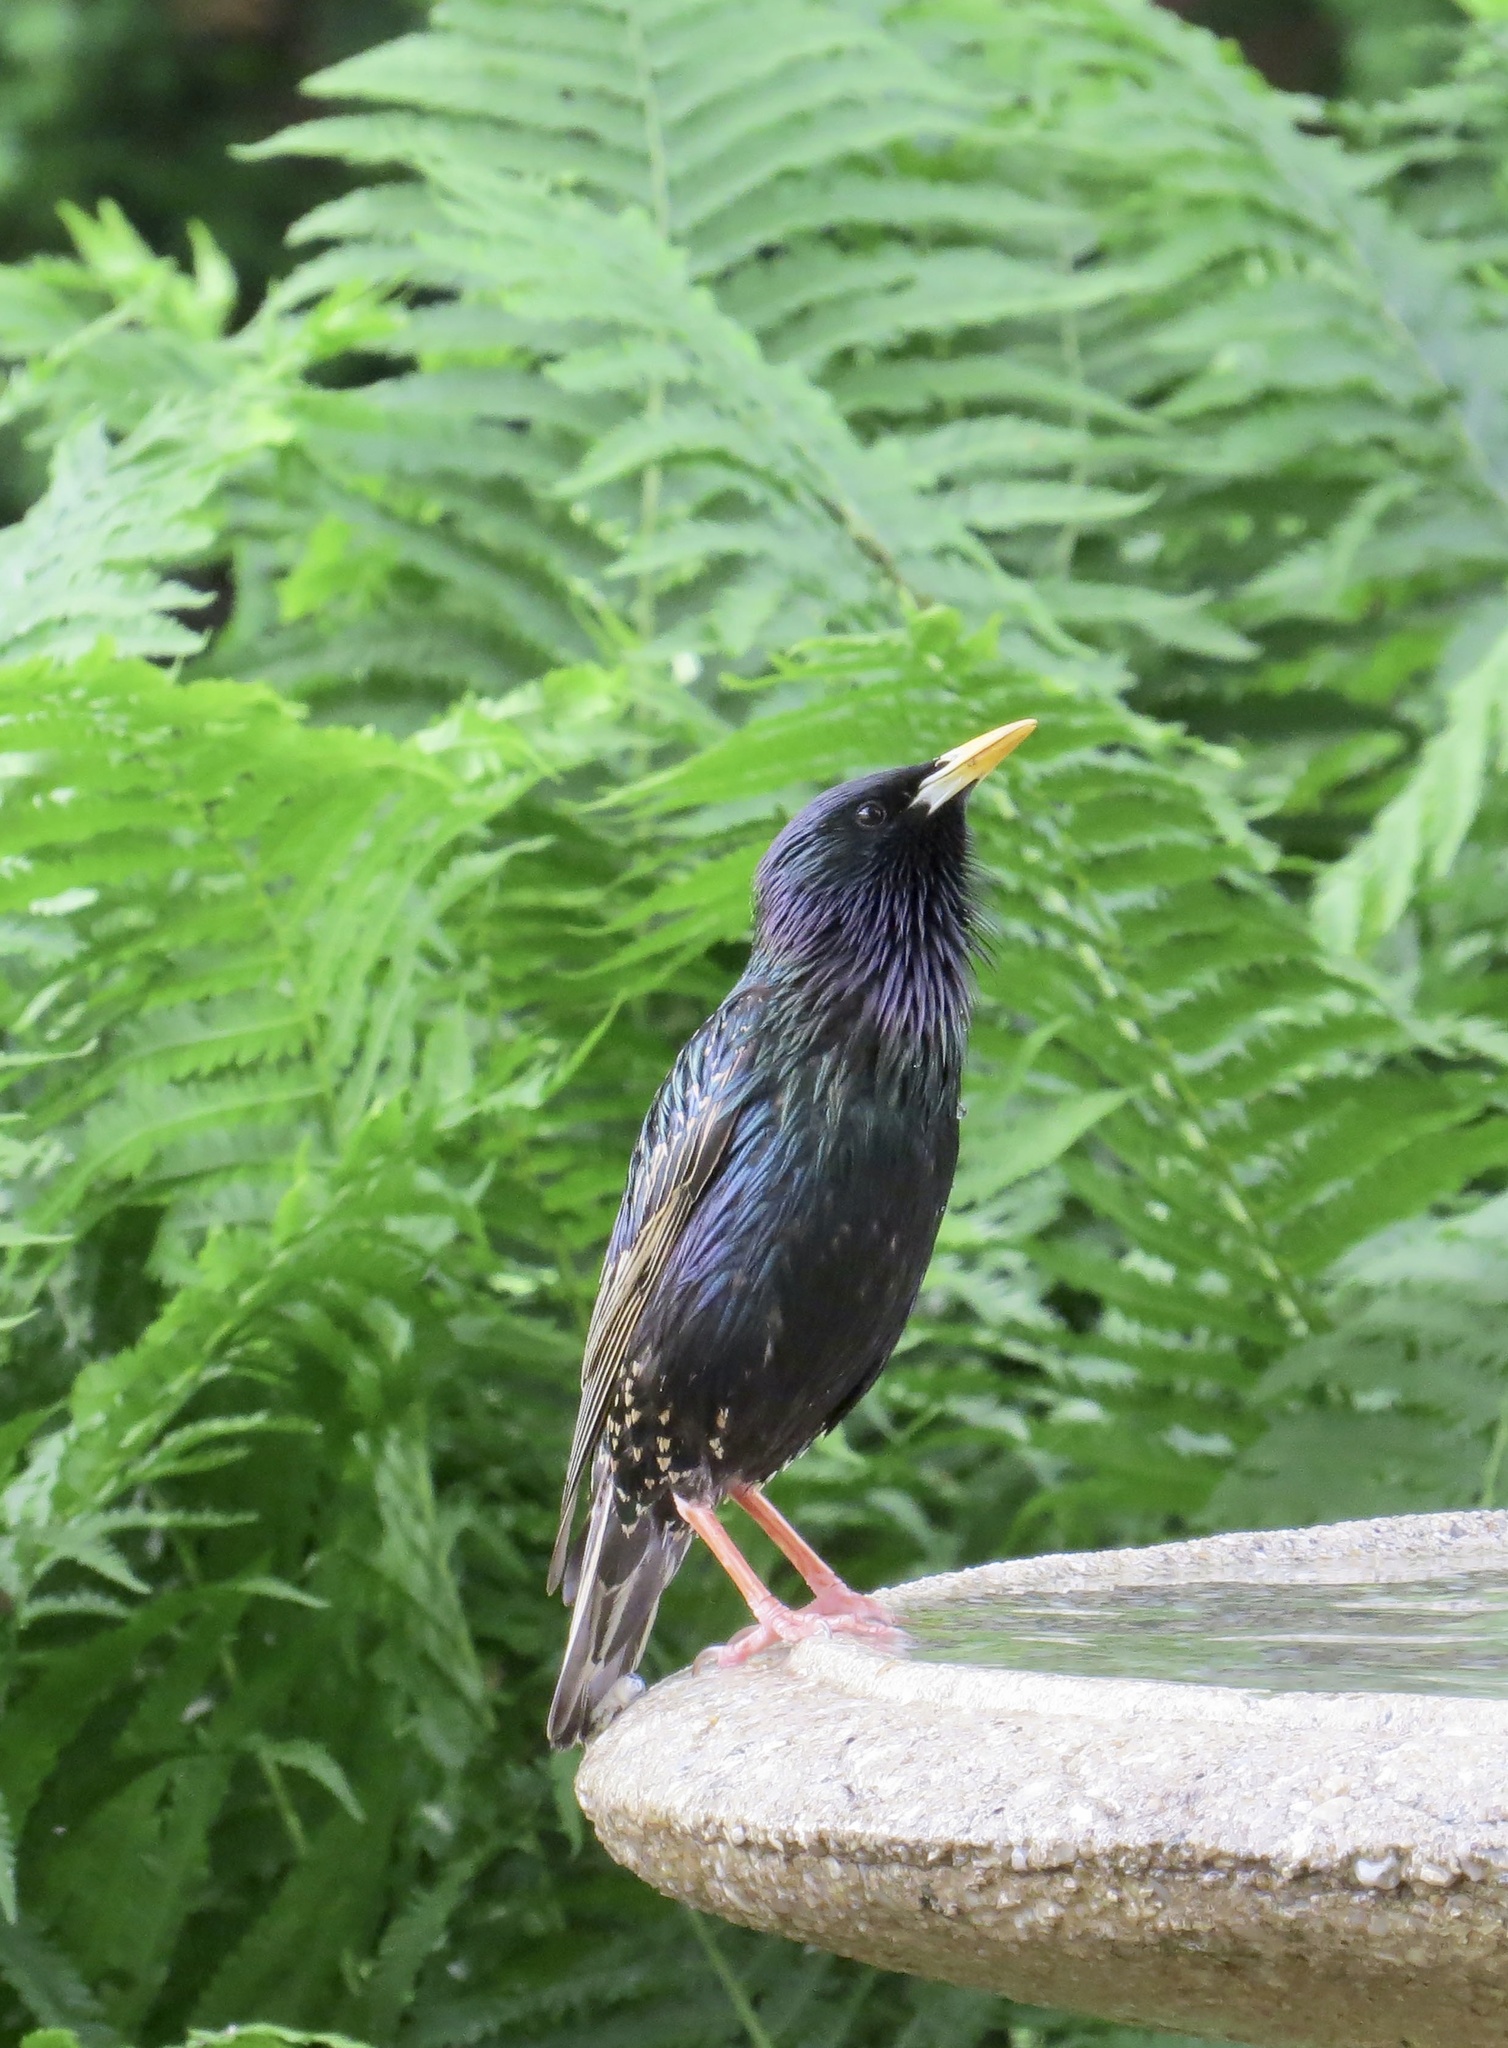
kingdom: Animalia
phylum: Chordata
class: Aves
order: Passeriformes
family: Sturnidae
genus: Sturnus
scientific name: Sturnus vulgaris
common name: Common starling
